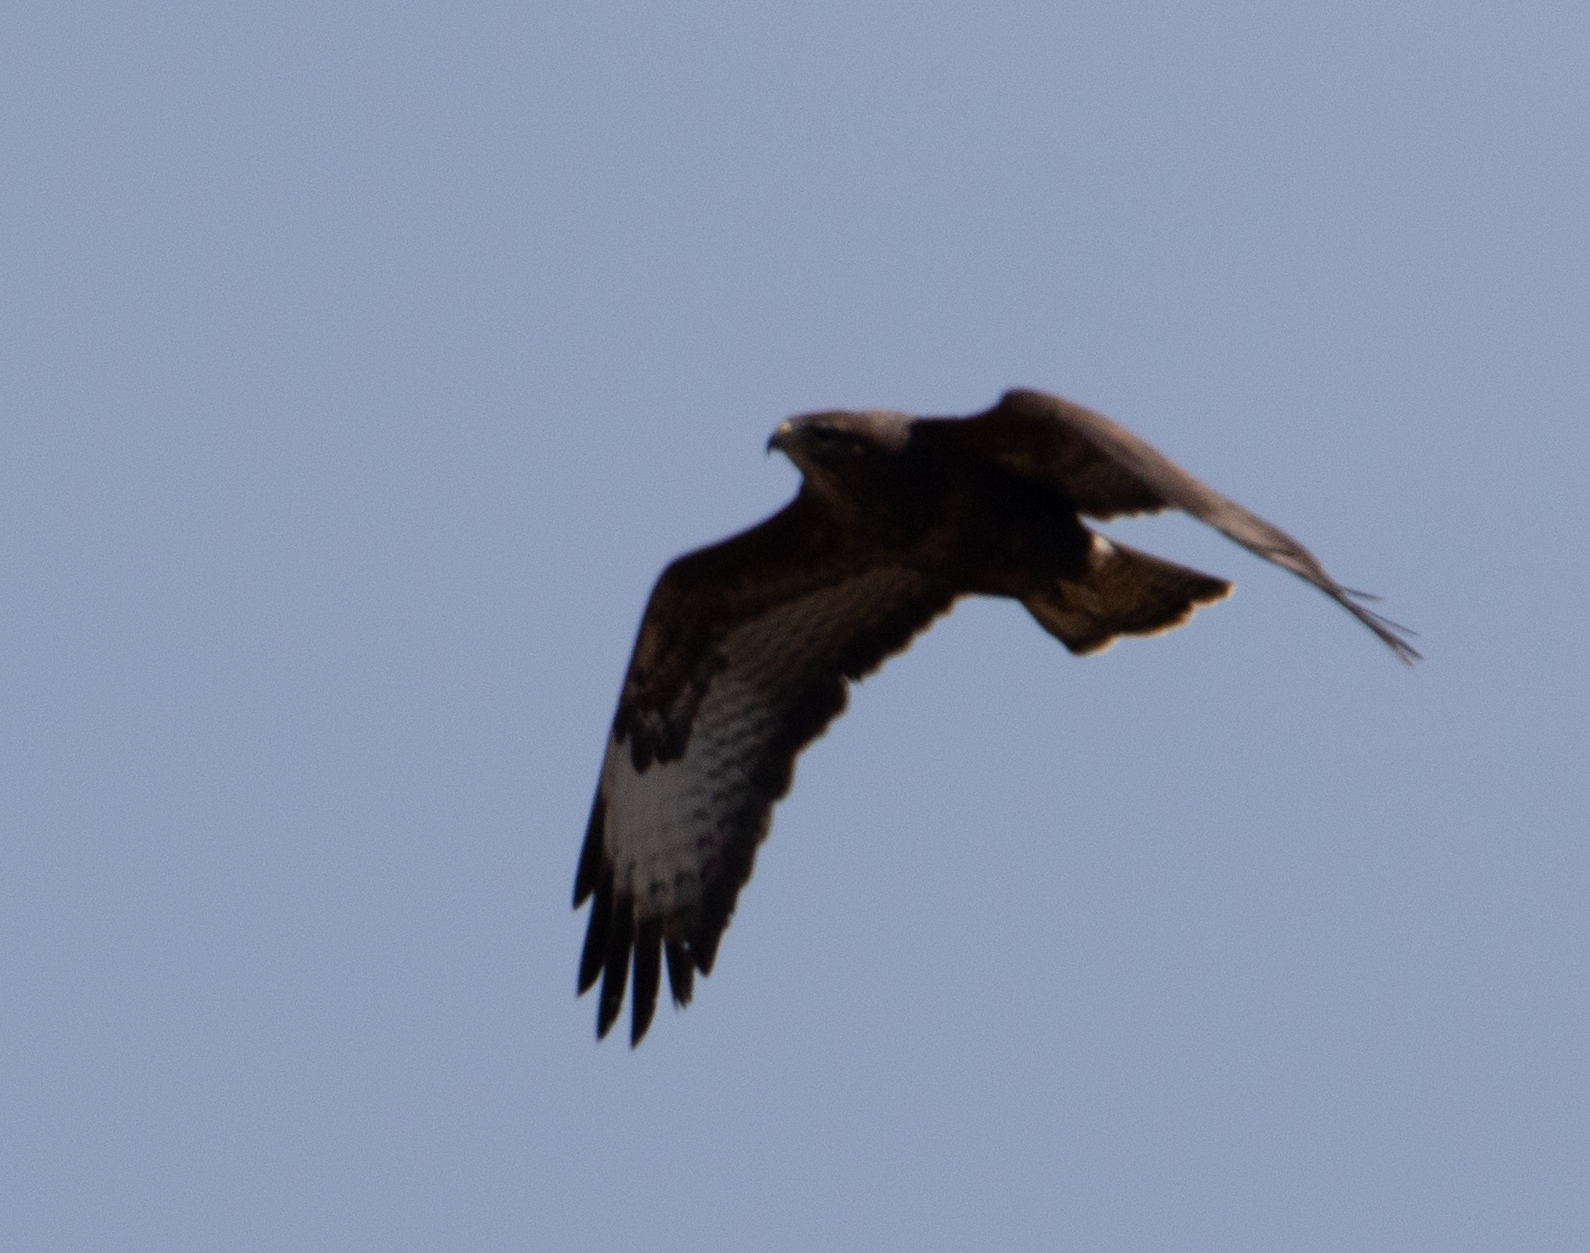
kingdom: Animalia
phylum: Chordata
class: Aves
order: Accipitriformes
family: Accipitridae
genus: Buteo
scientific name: Buteo buteo
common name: Common buzzard
